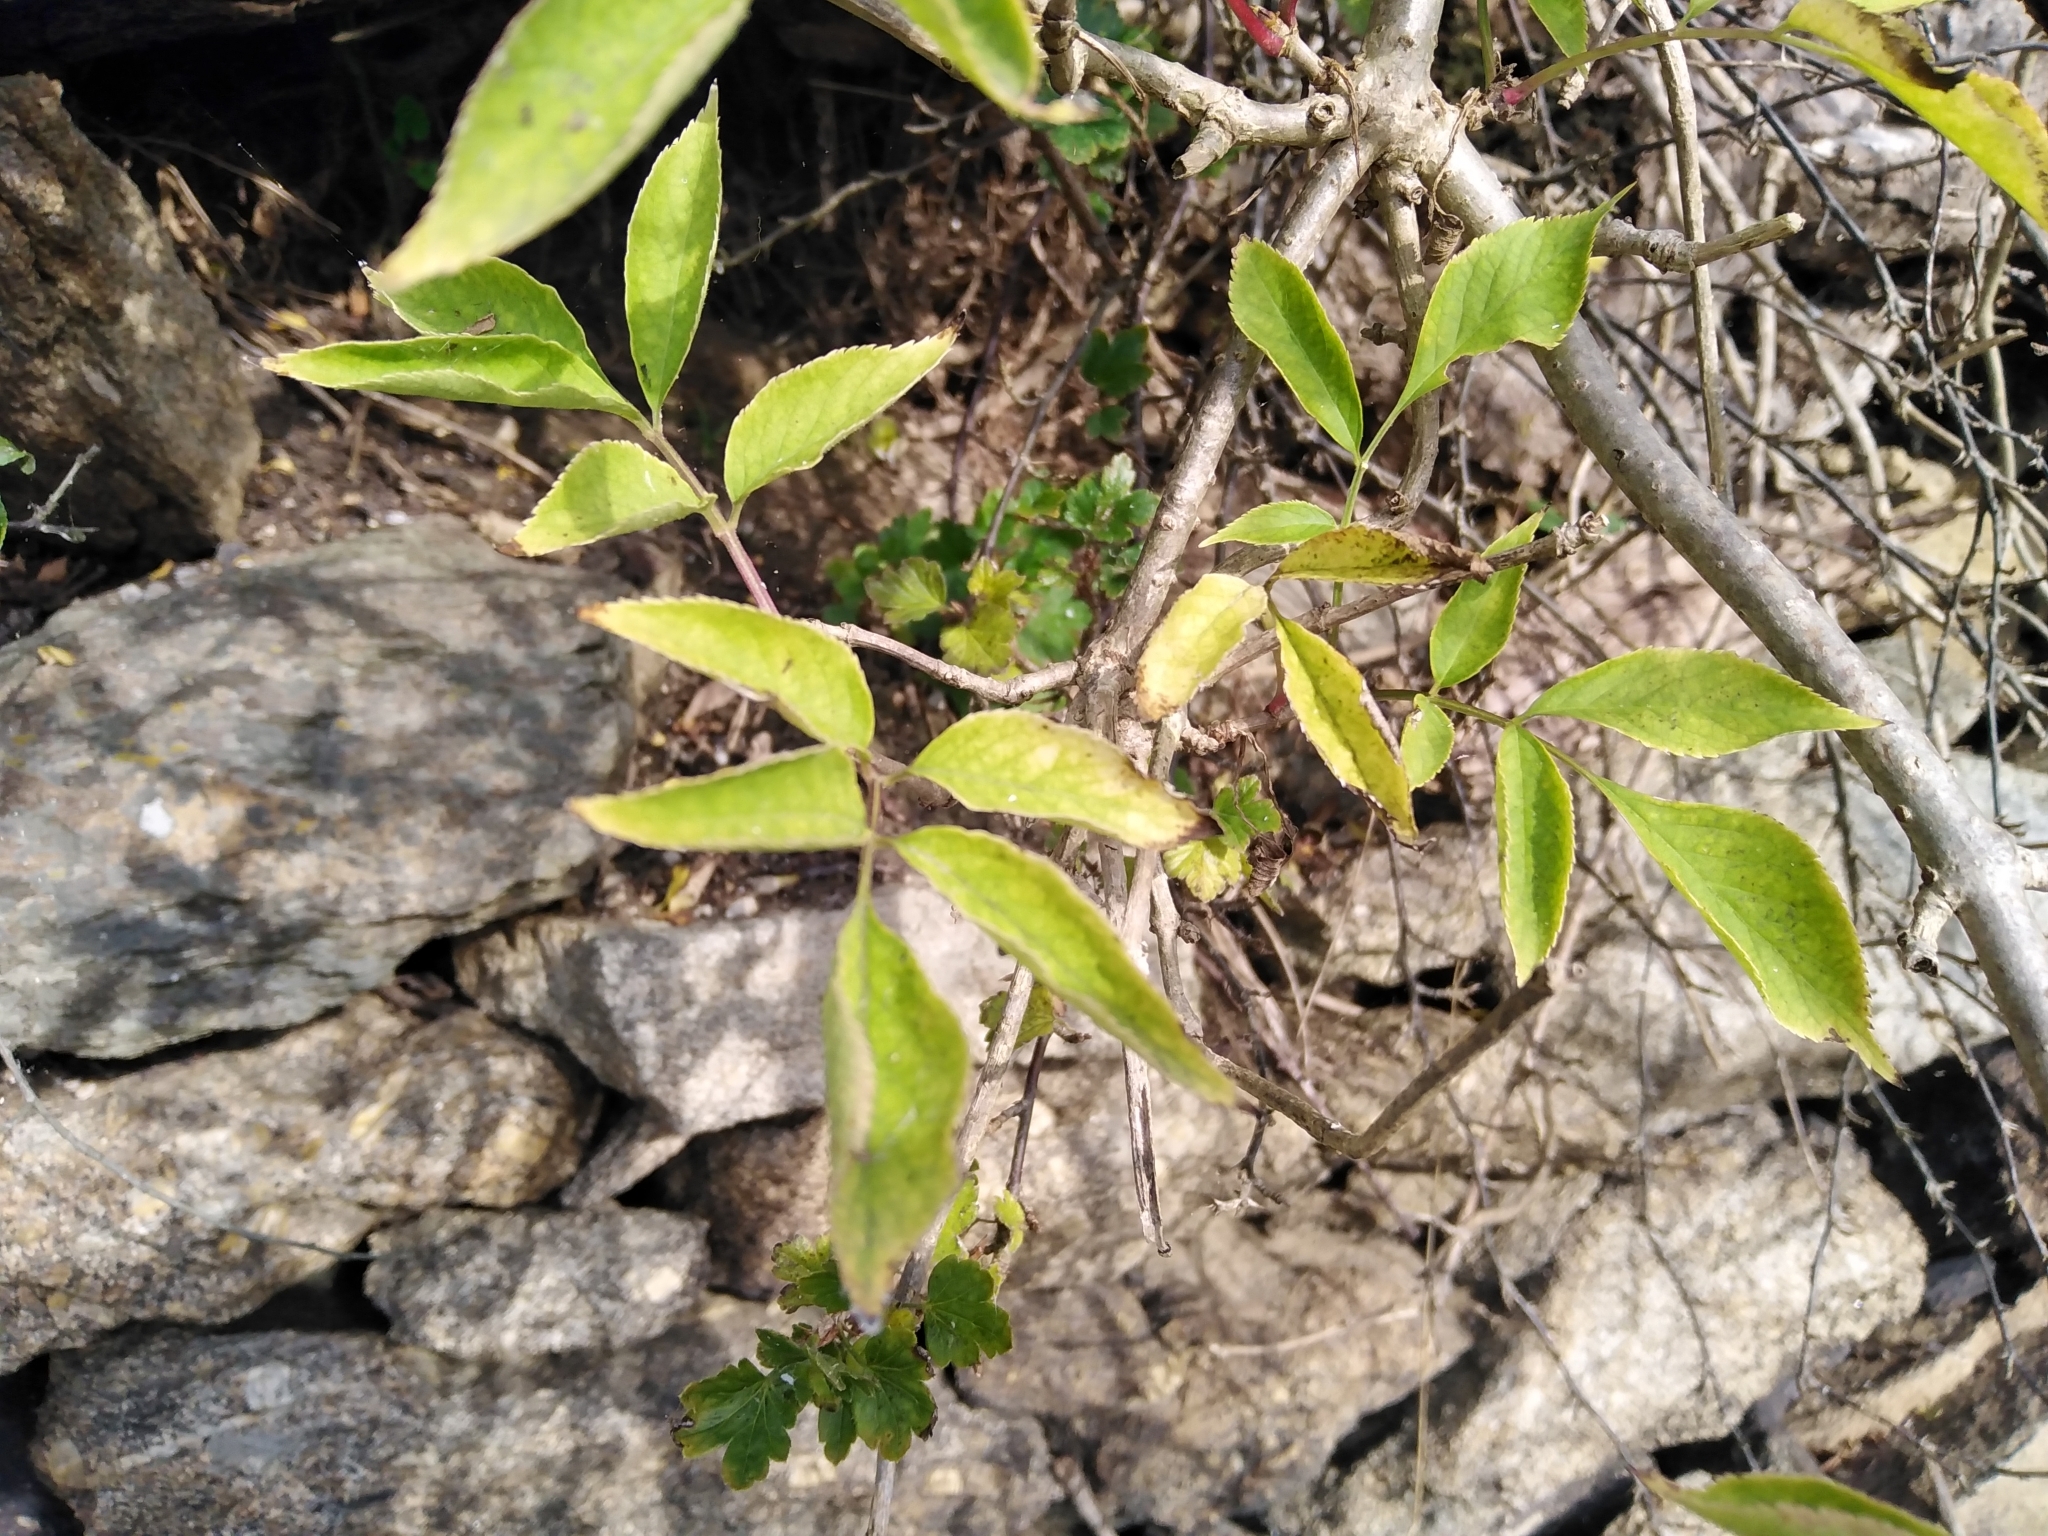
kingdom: Plantae
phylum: Tracheophyta
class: Magnoliopsida
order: Dipsacales
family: Viburnaceae
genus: Sambucus
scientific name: Sambucus nigra
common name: Elder
